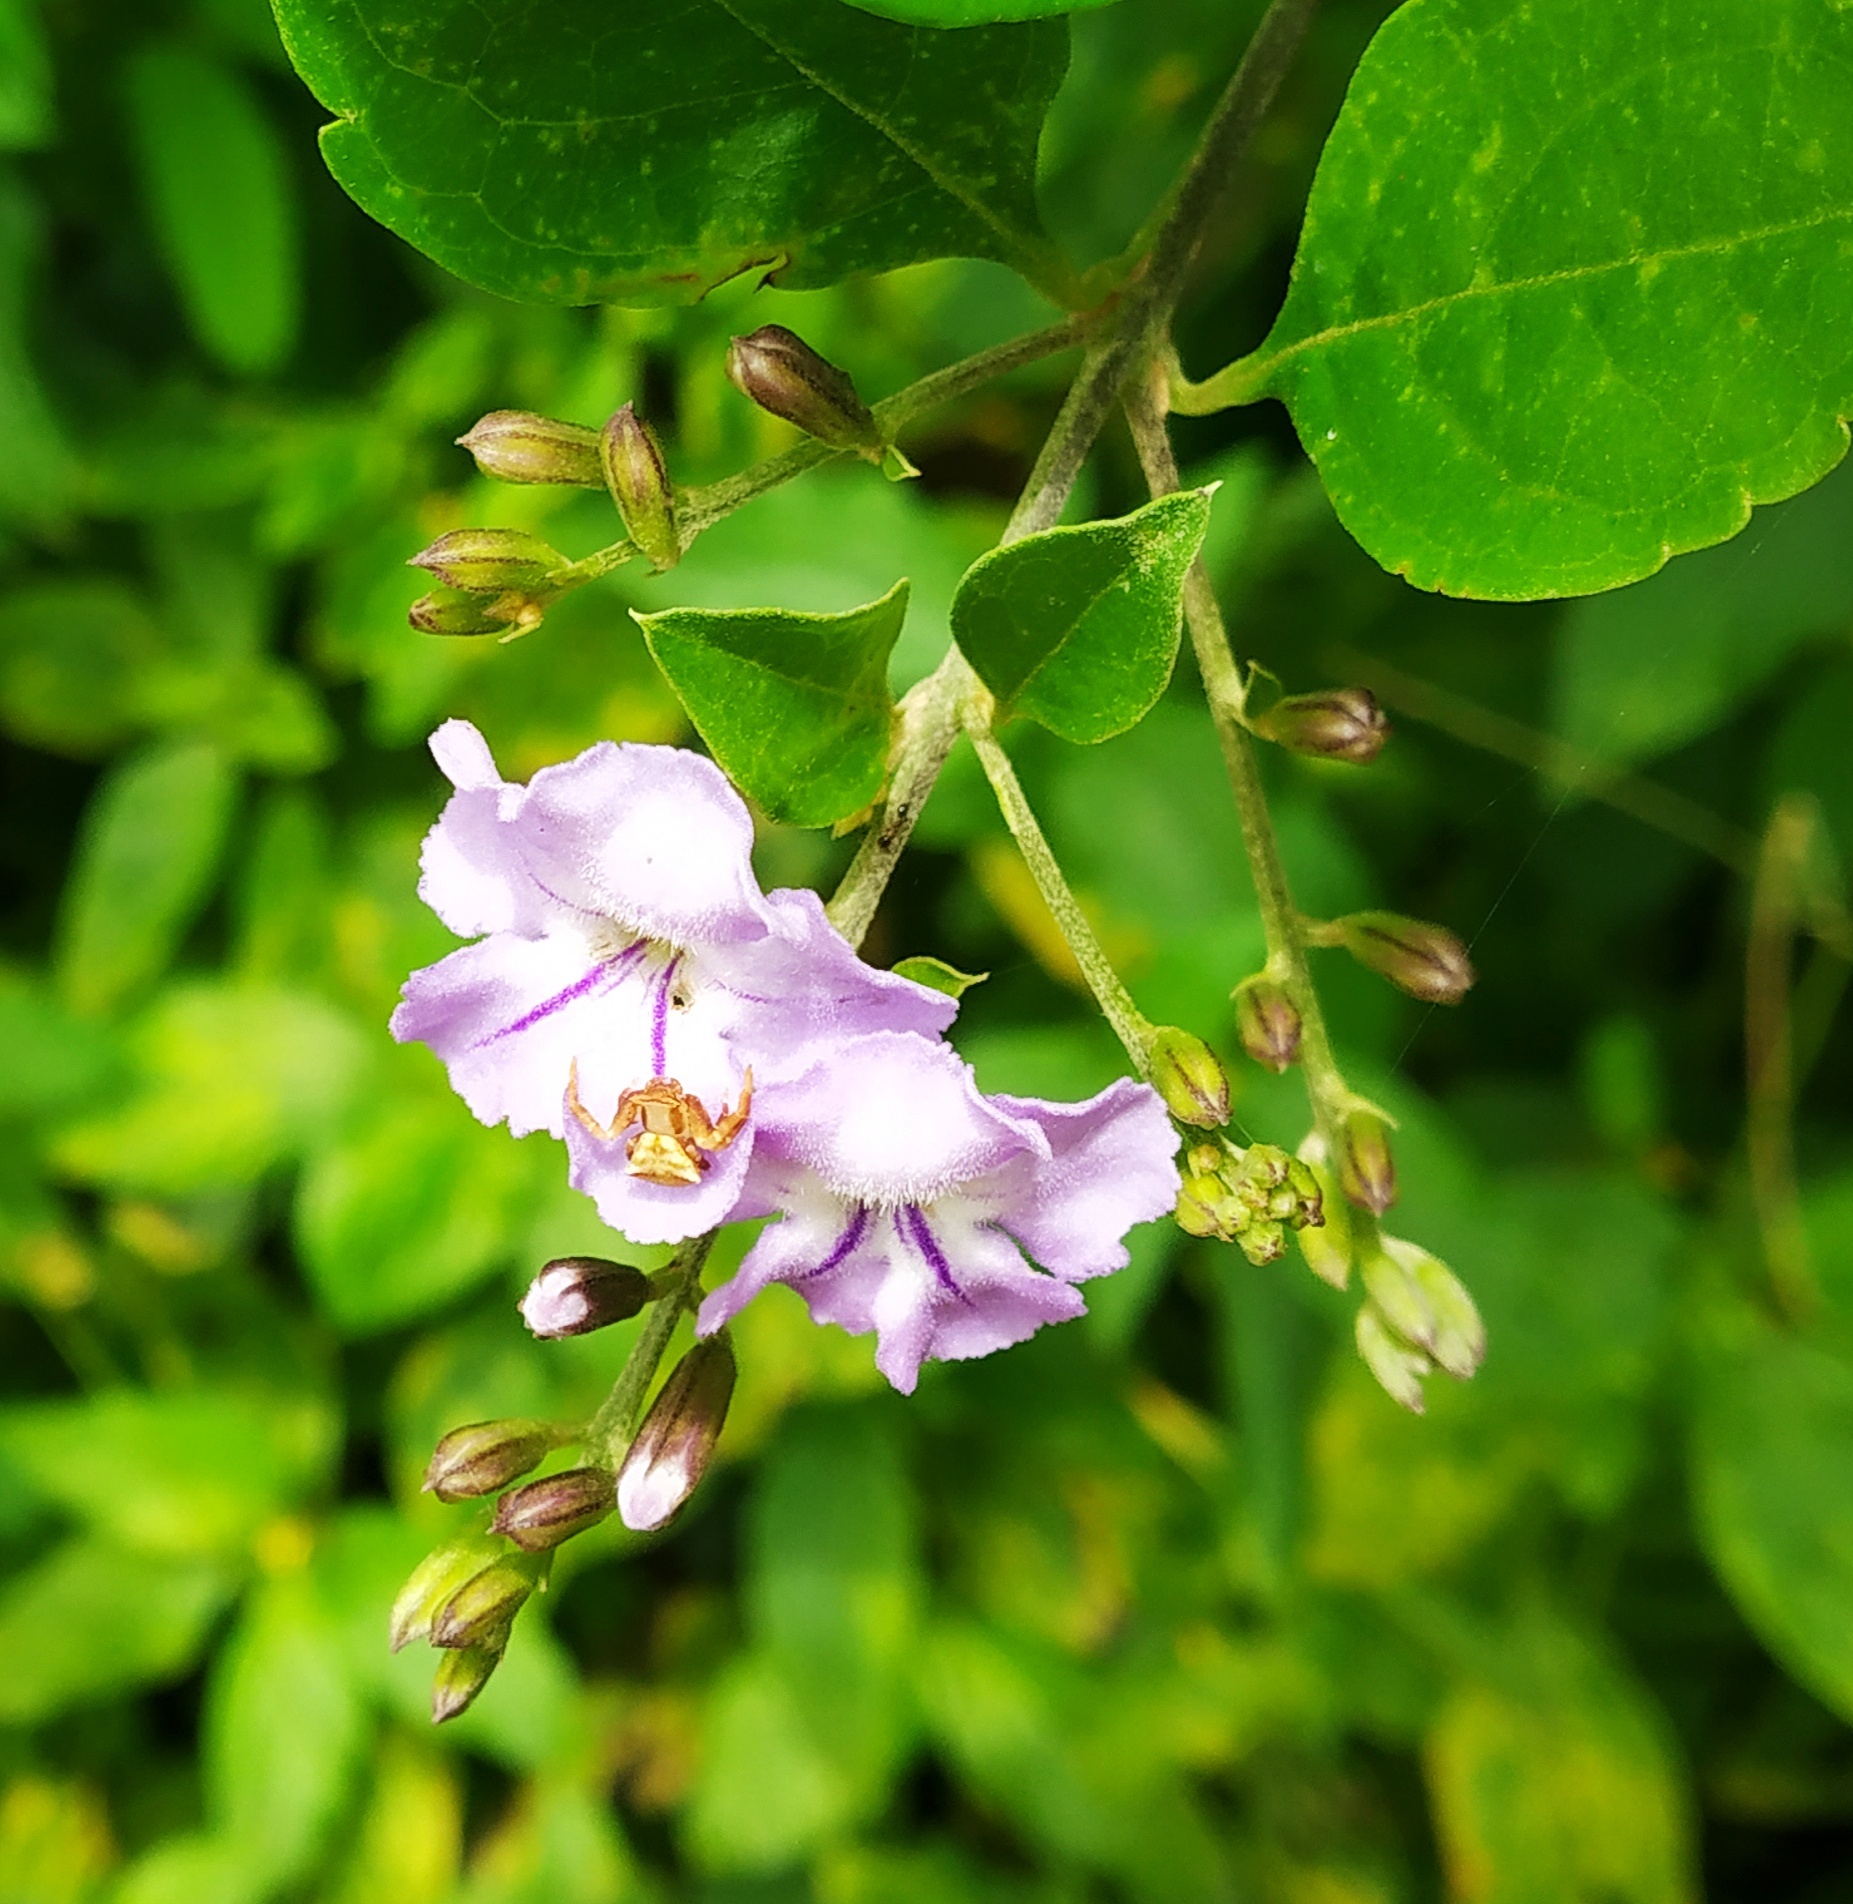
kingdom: Plantae
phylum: Tracheophyta
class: Magnoliopsida
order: Lamiales
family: Verbenaceae
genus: Duranta
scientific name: Duranta erecta
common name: Golden dewdrops
